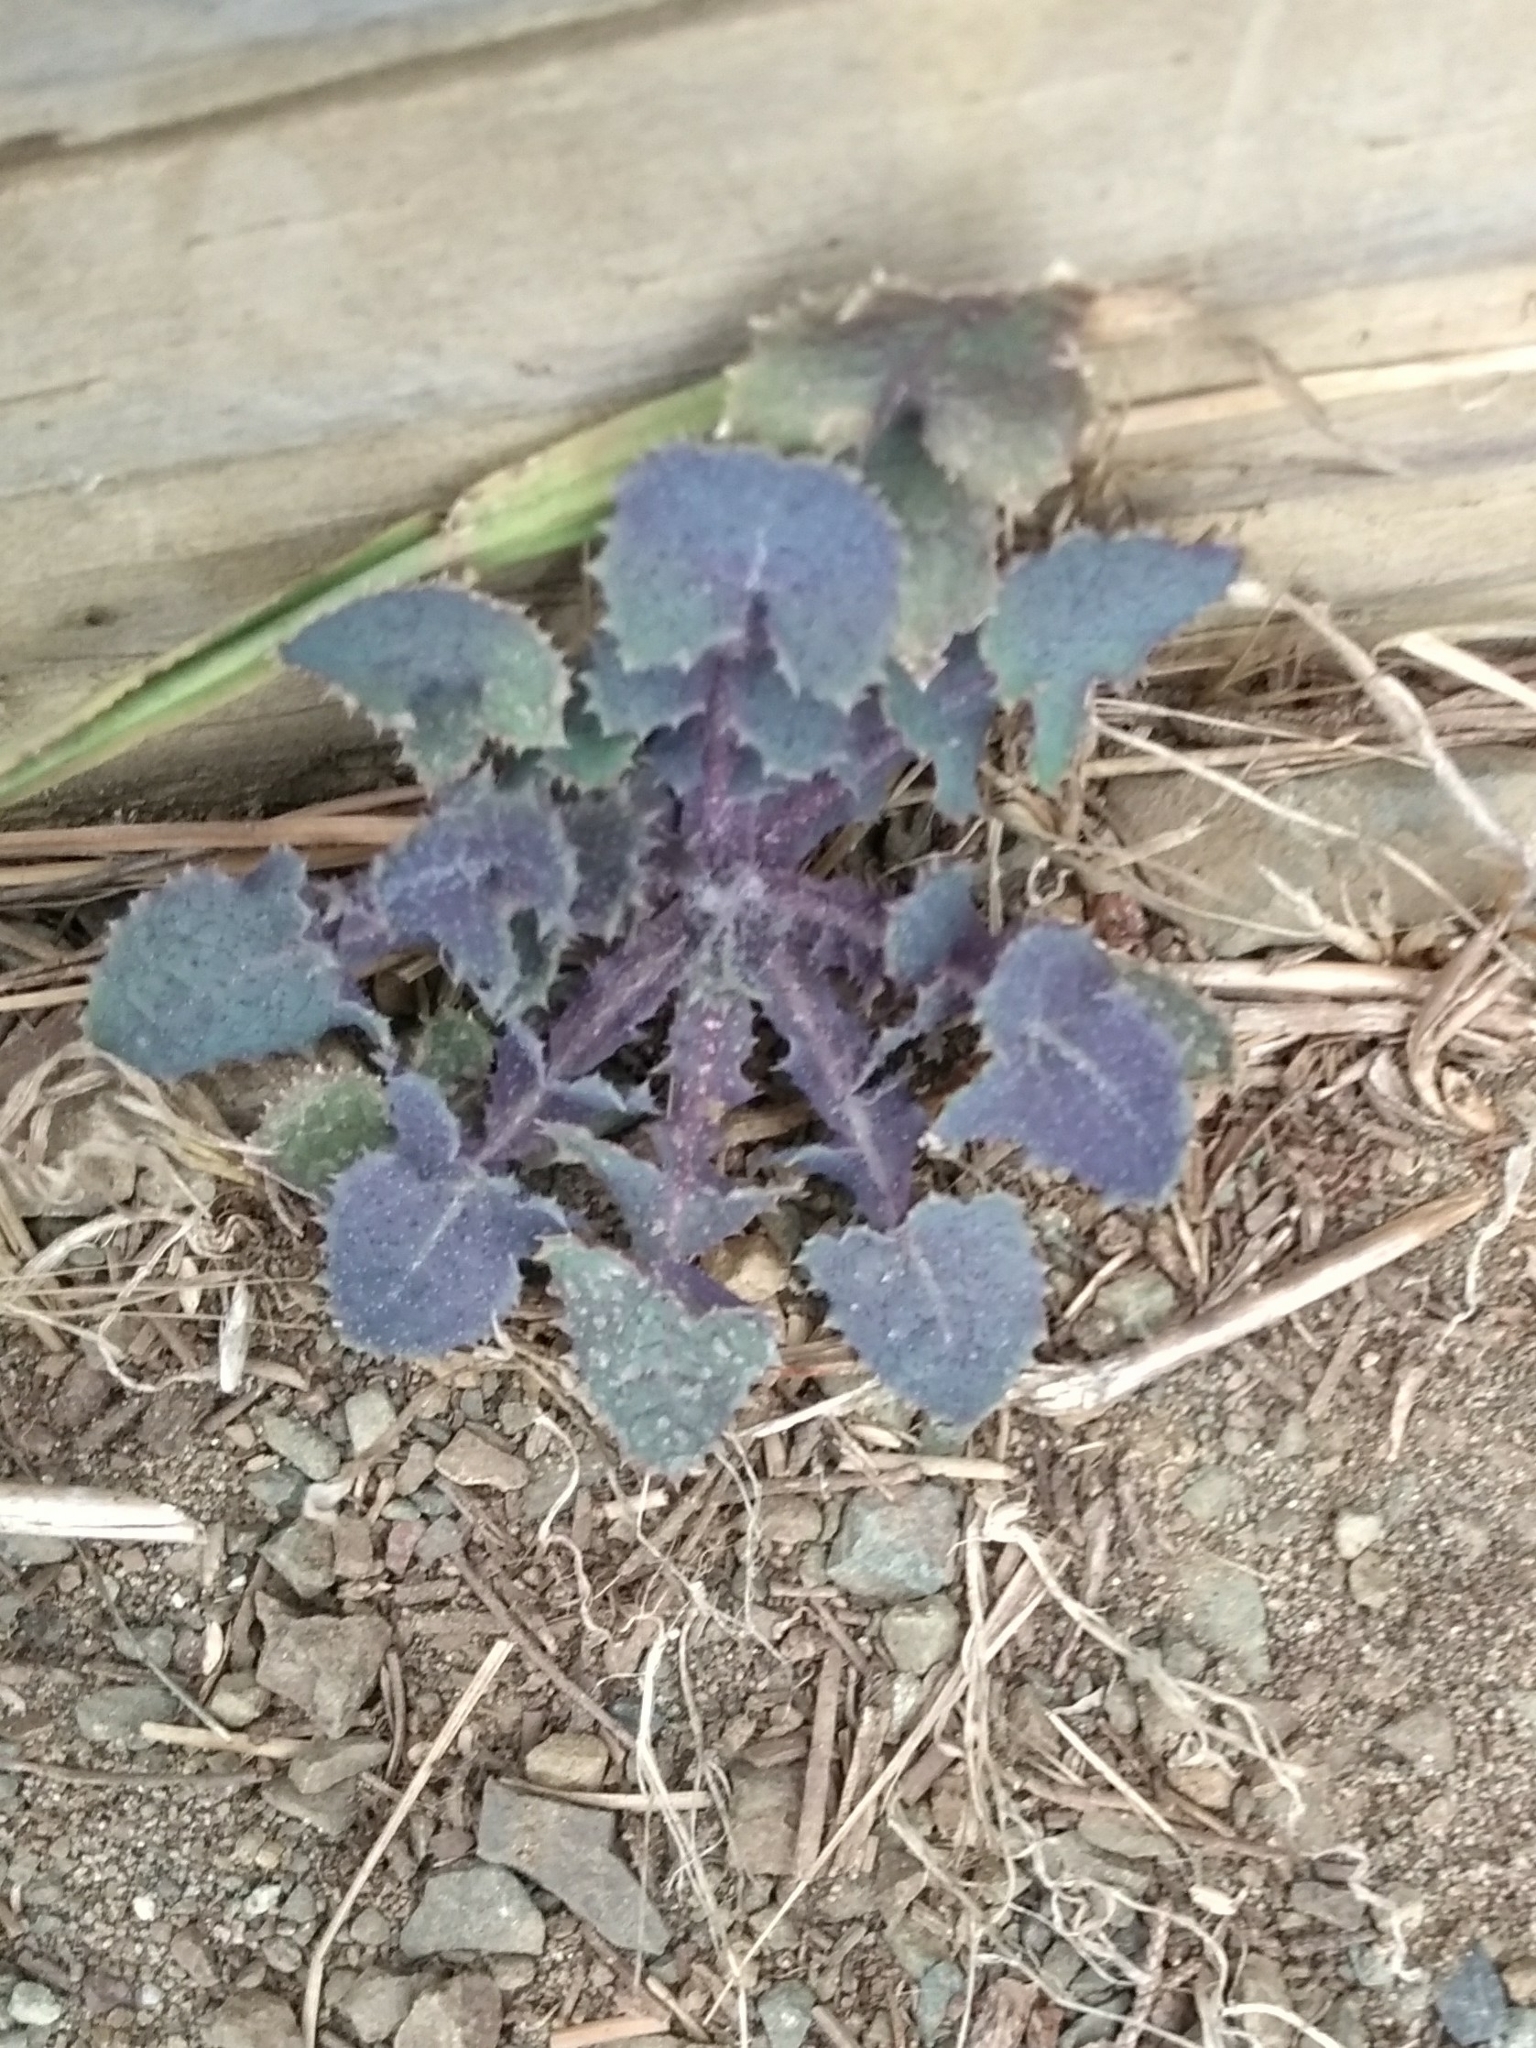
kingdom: Plantae
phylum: Tracheophyta
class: Magnoliopsida
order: Asterales
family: Asteraceae
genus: Sonchus
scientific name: Sonchus
